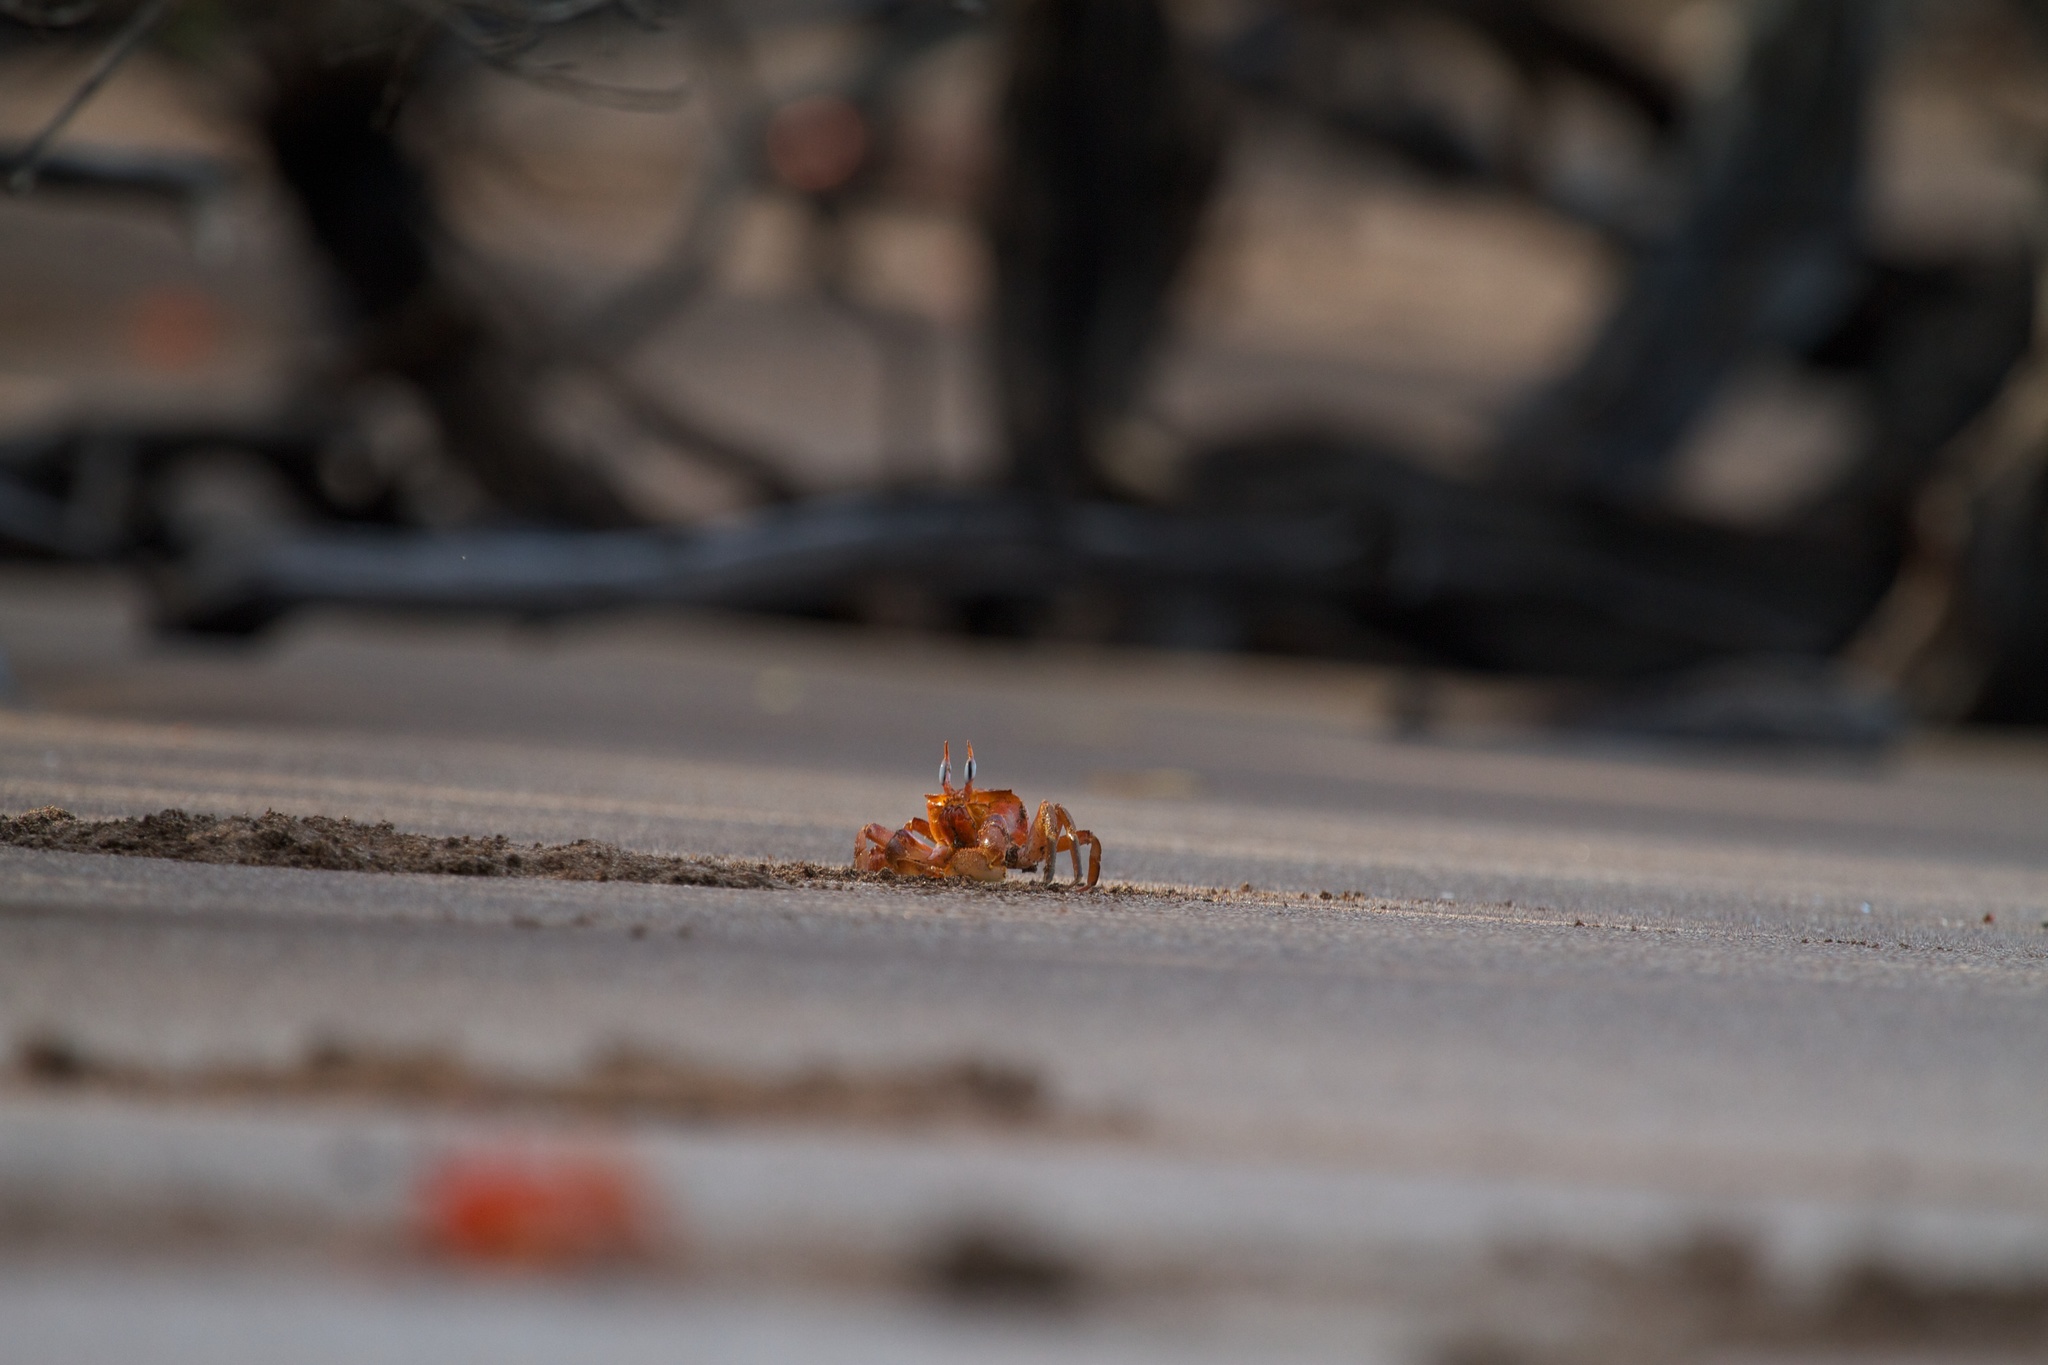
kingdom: Animalia
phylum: Arthropoda
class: Malacostraca
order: Decapoda
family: Ocypodidae
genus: Ocypode
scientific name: Ocypode gaudichaudii
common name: Pacific ghost crab
